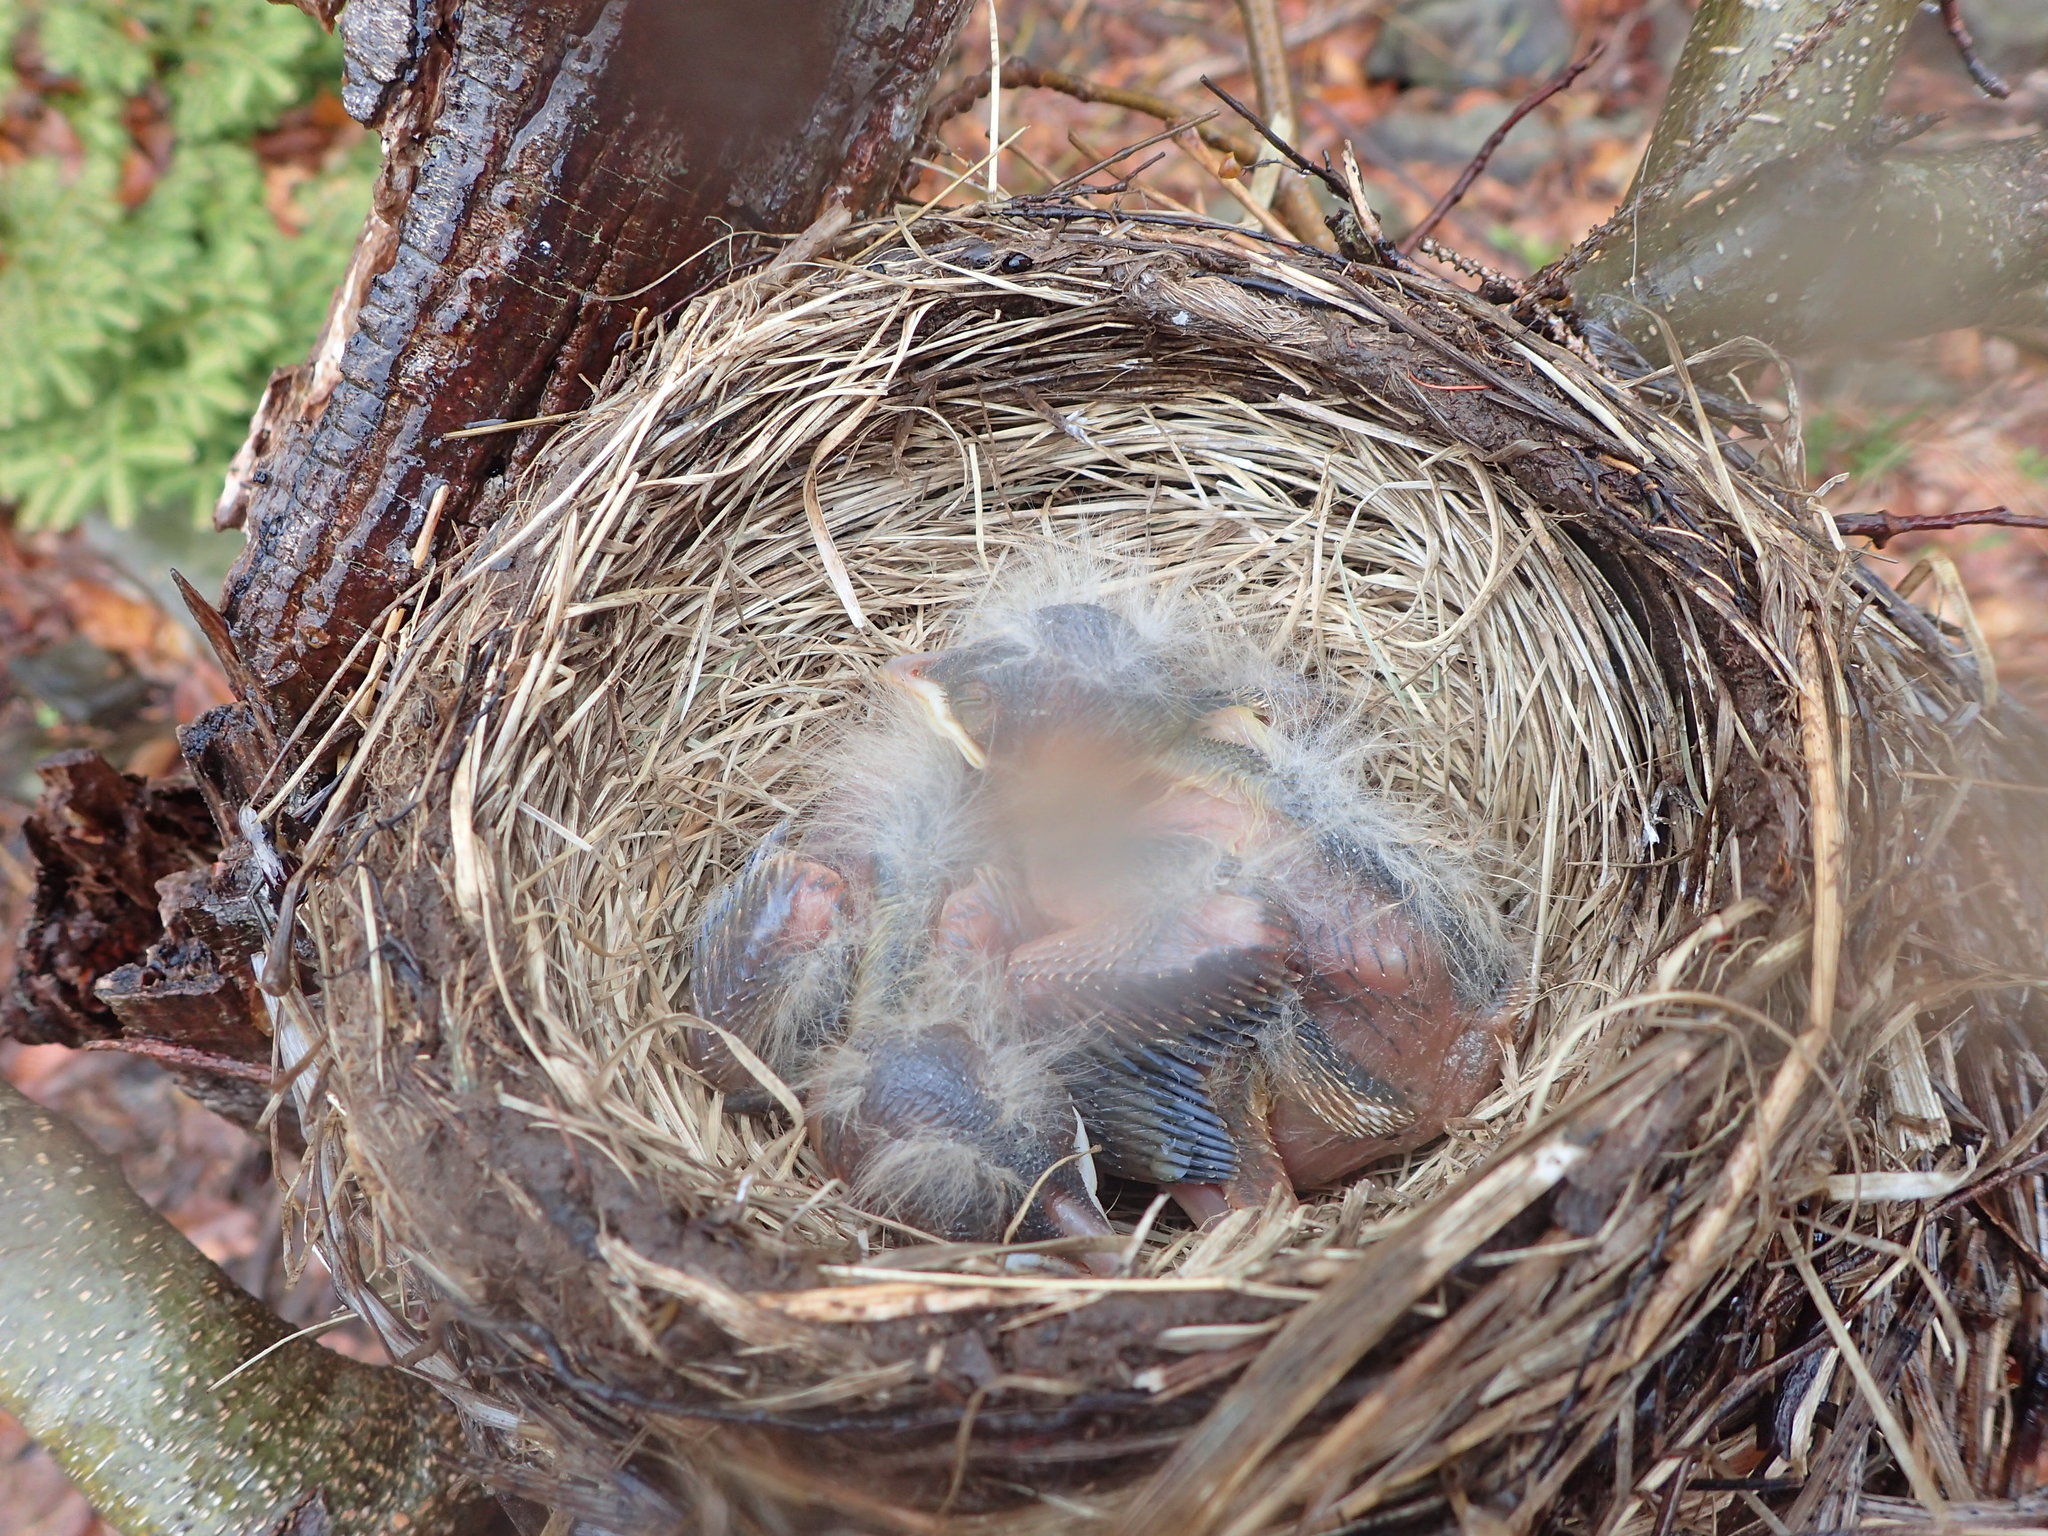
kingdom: Animalia
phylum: Chordata
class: Aves
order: Passeriformes
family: Turdidae
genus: Turdus
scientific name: Turdus migratorius
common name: American robin
